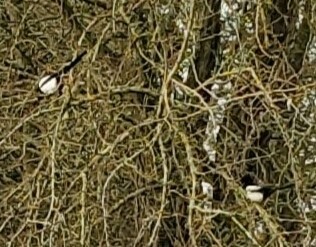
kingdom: Animalia
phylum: Chordata
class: Aves
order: Passeriformes
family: Corvidae
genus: Pica
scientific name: Pica pica
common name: Eurasian magpie
